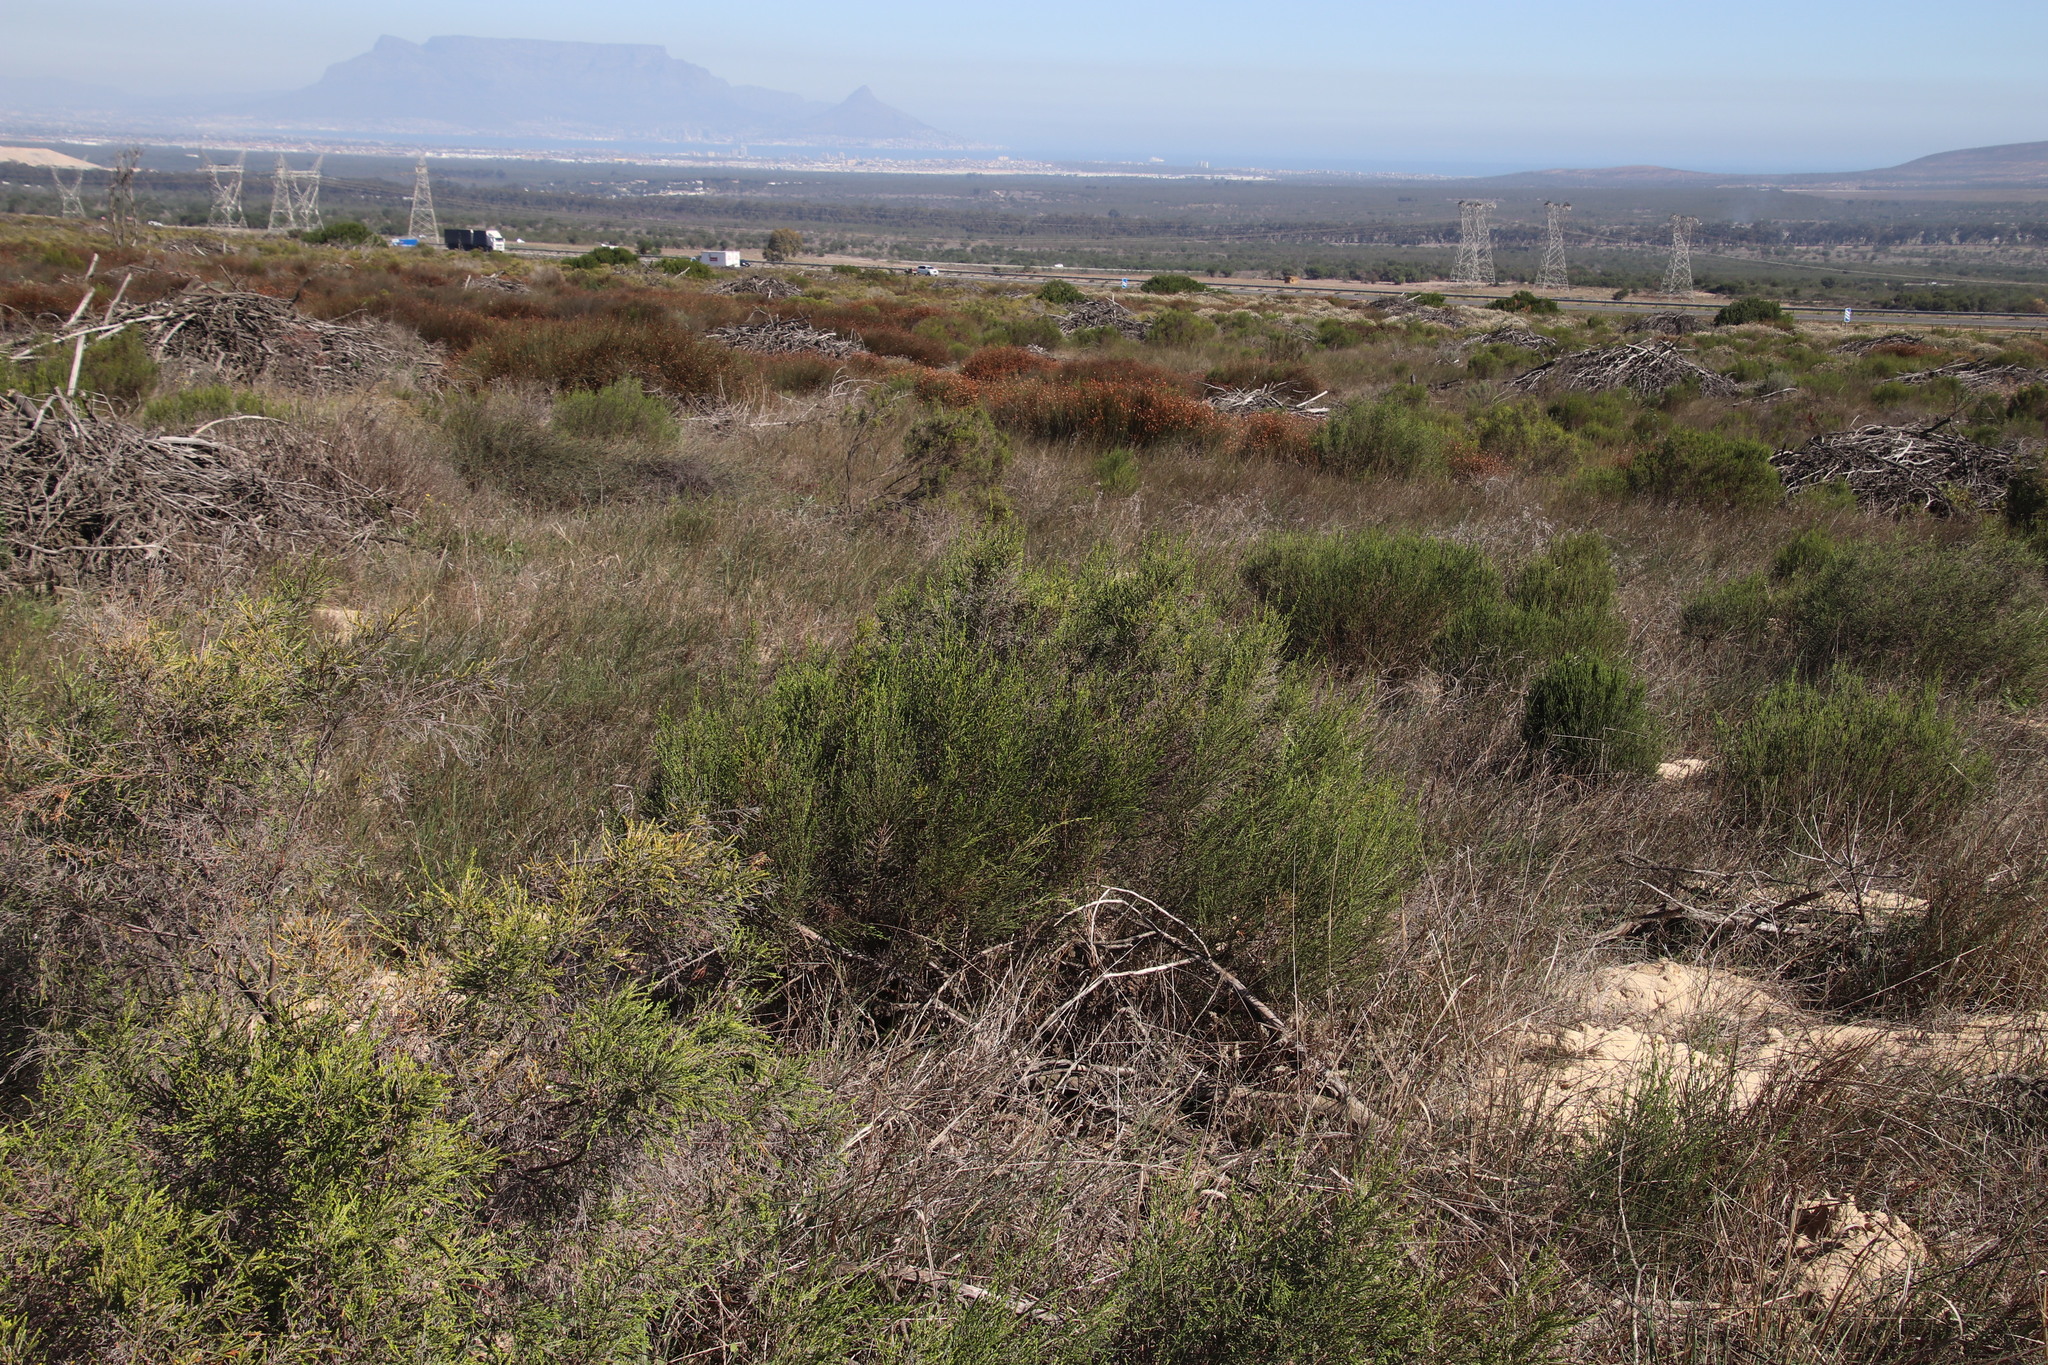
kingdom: Plantae
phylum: Tracheophyta
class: Magnoliopsida
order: Malvales
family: Thymelaeaceae
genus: Passerina
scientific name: Passerina corymbosa
